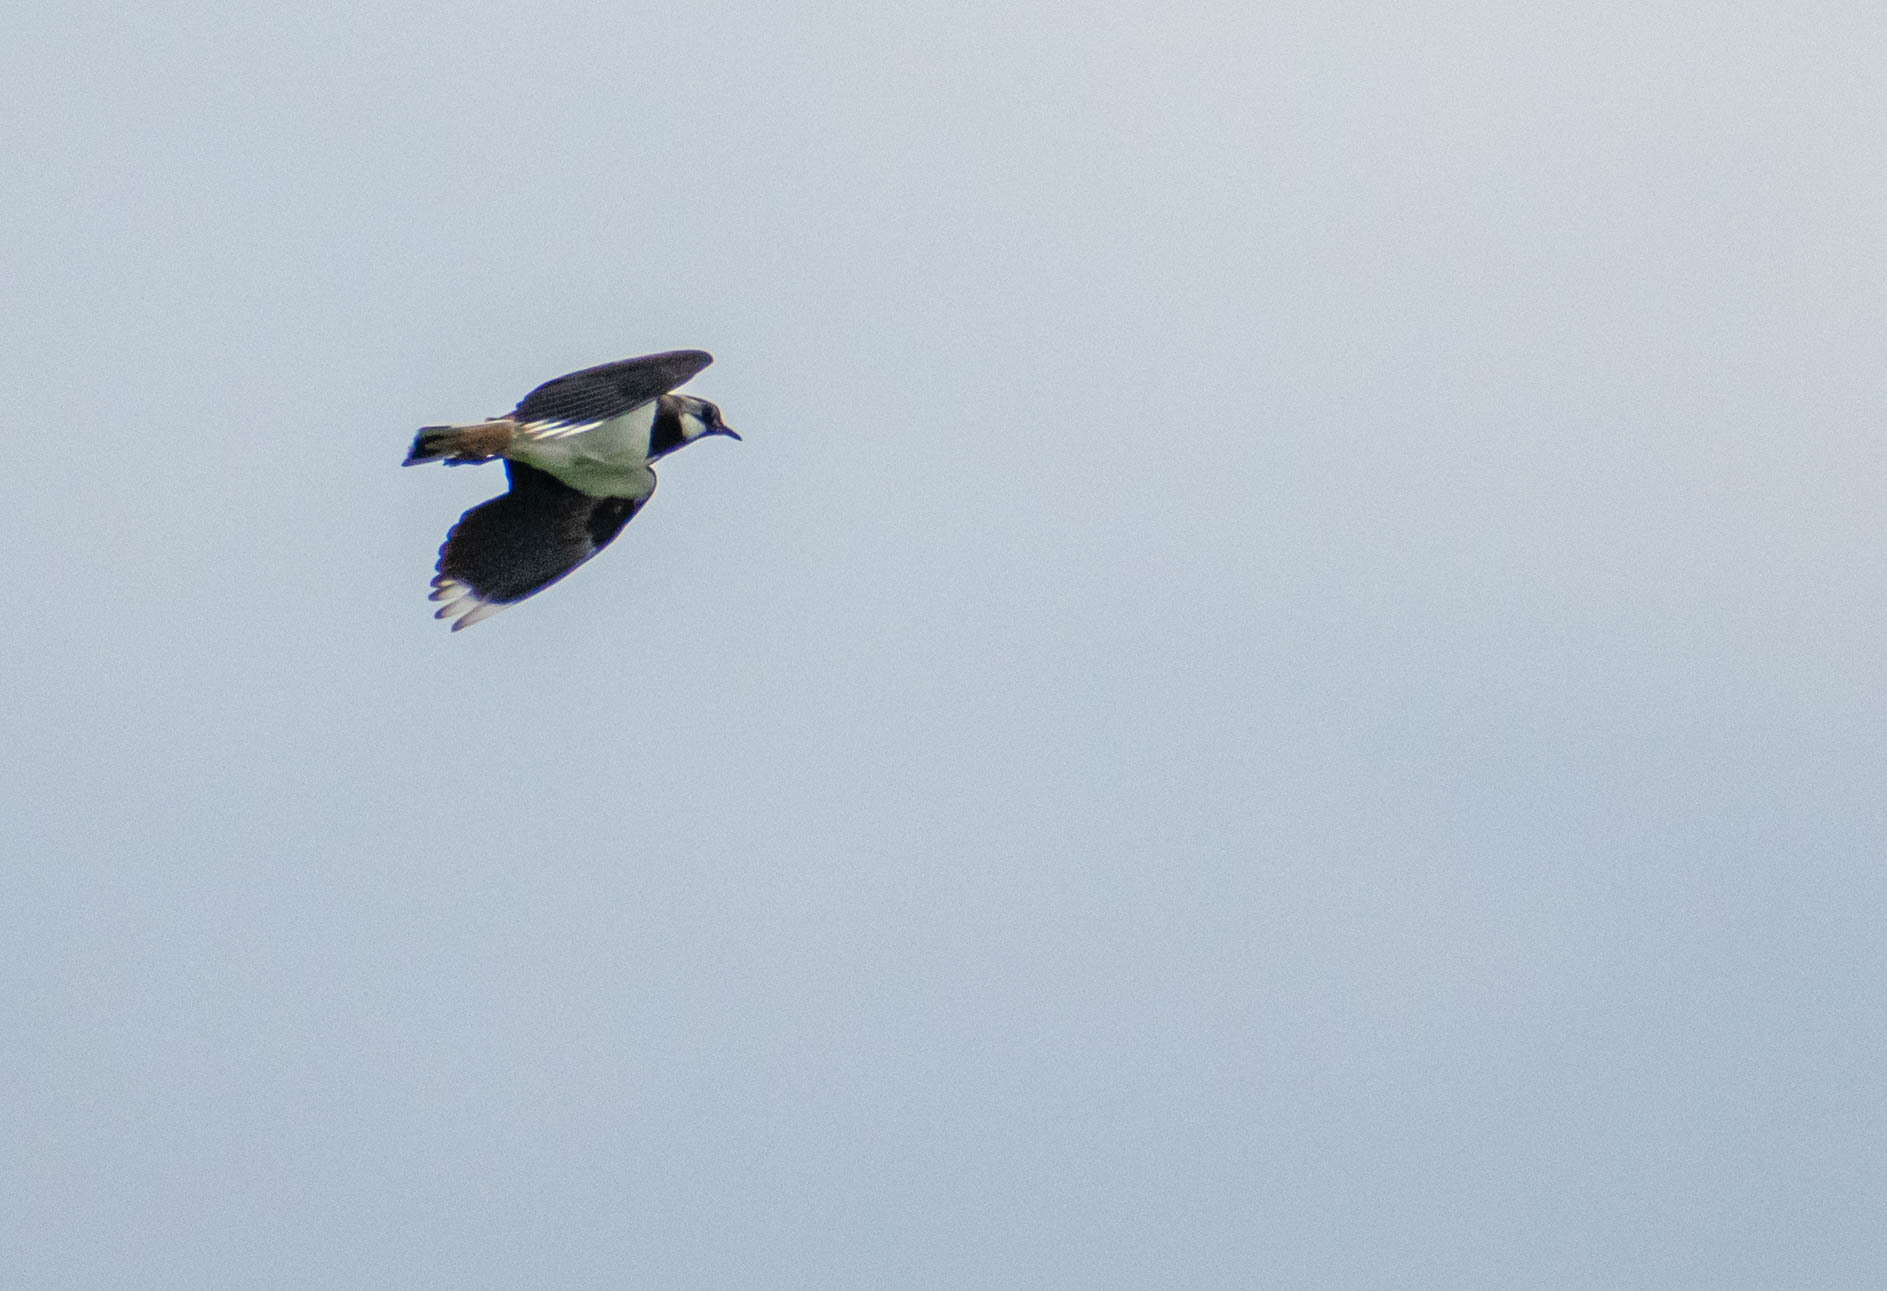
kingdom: Animalia
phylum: Chordata
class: Aves
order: Charadriiformes
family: Charadriidae
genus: Vanellus
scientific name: Vanellus vanellus
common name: Northern lapwing
